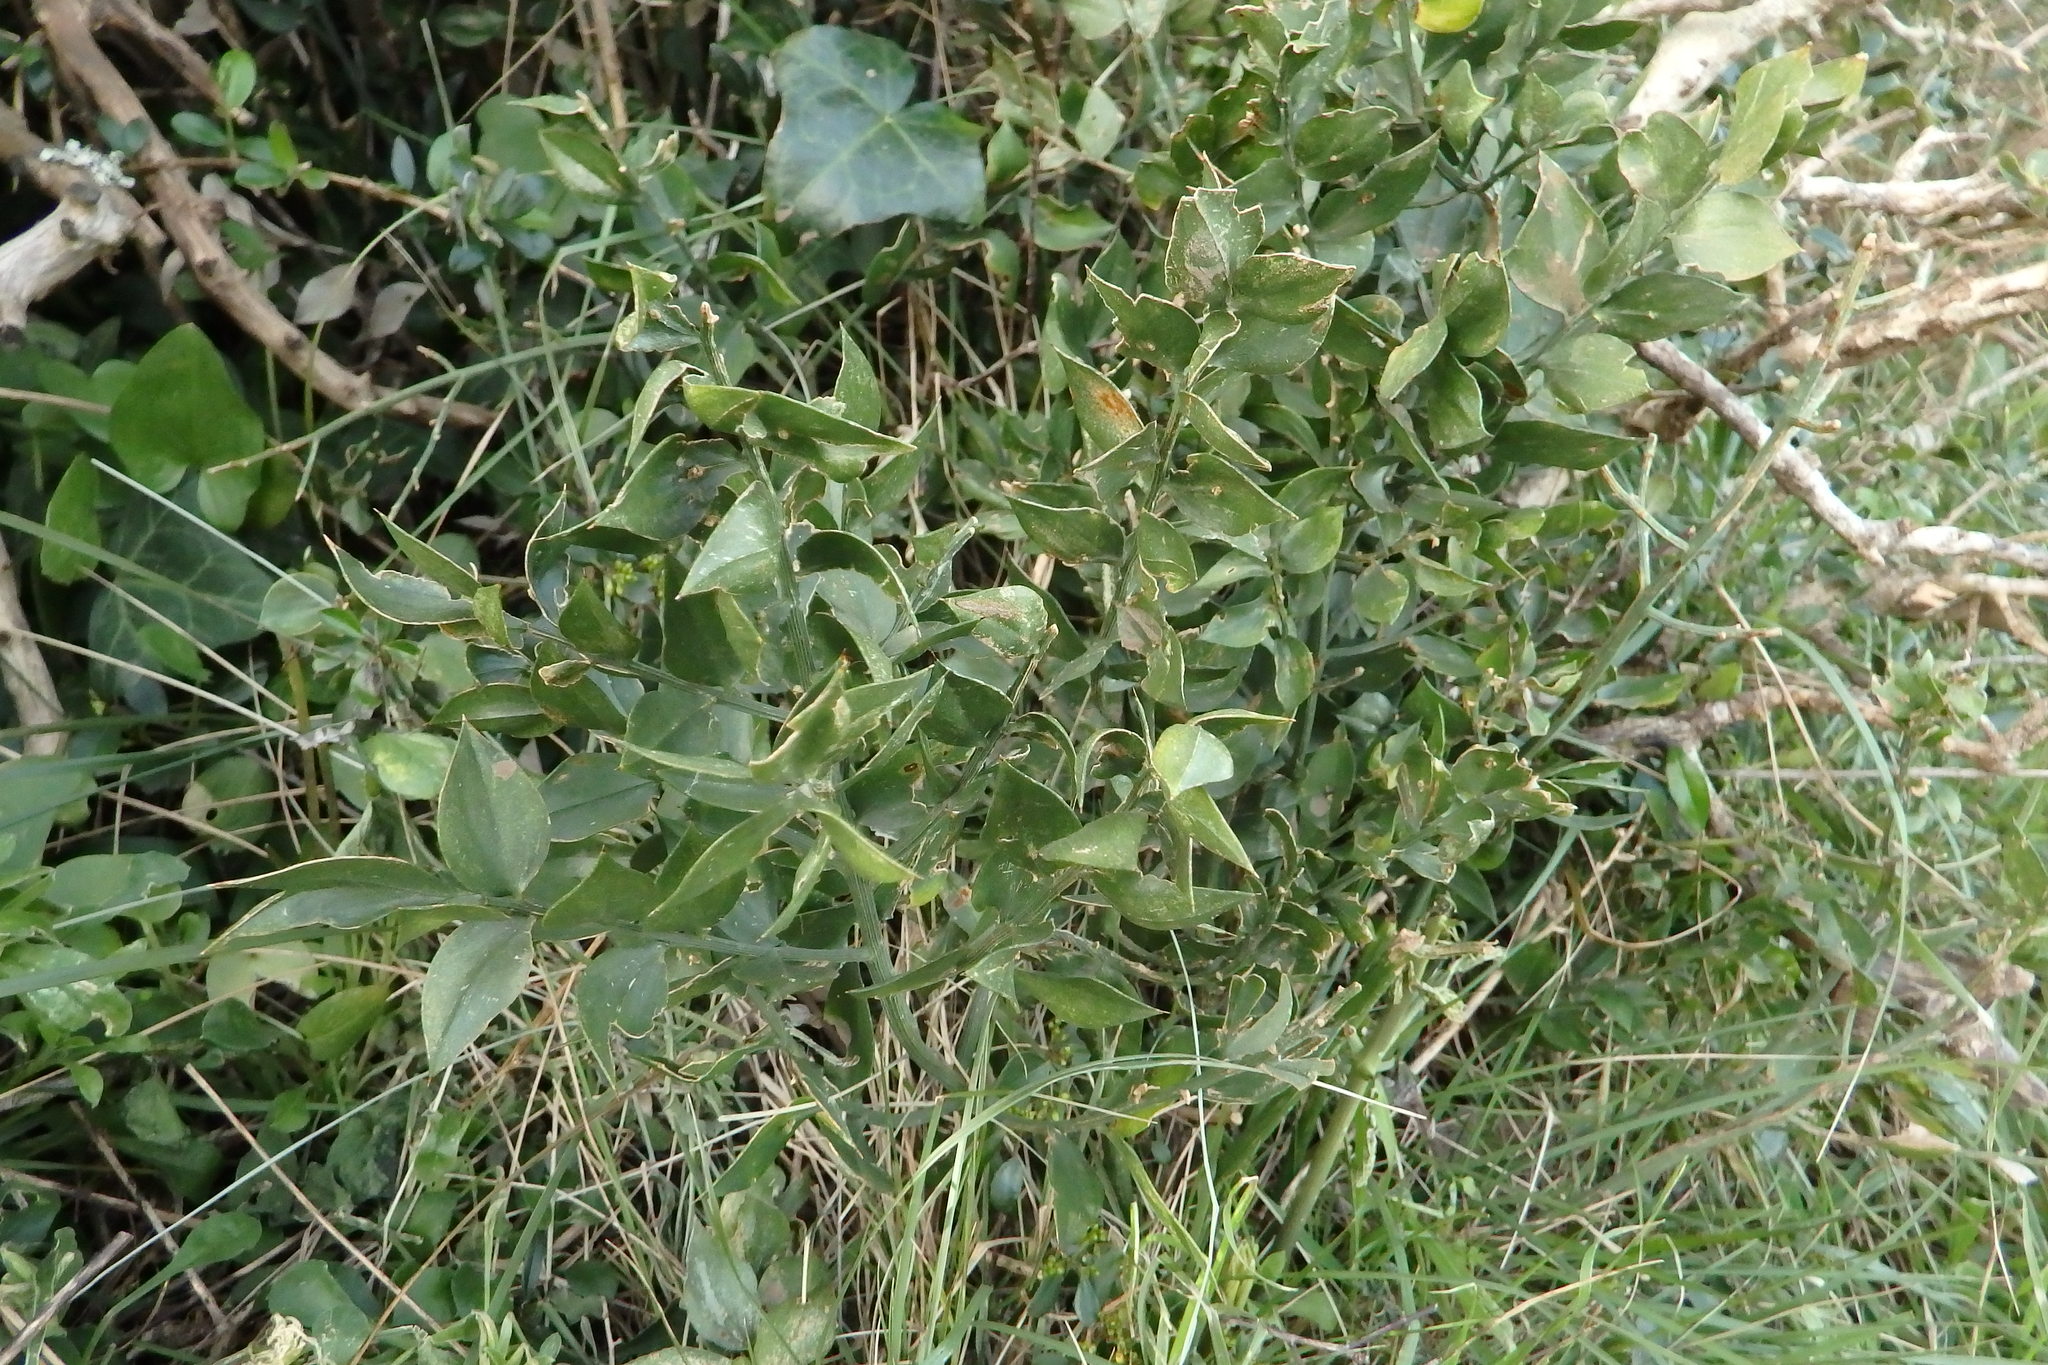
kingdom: Plantae
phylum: Tracheophyta
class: Liliopsida
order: Asparagales
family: Asparagaceae
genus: Ruscus
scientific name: Ruscus aculeatus
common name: Butcher's-broom
